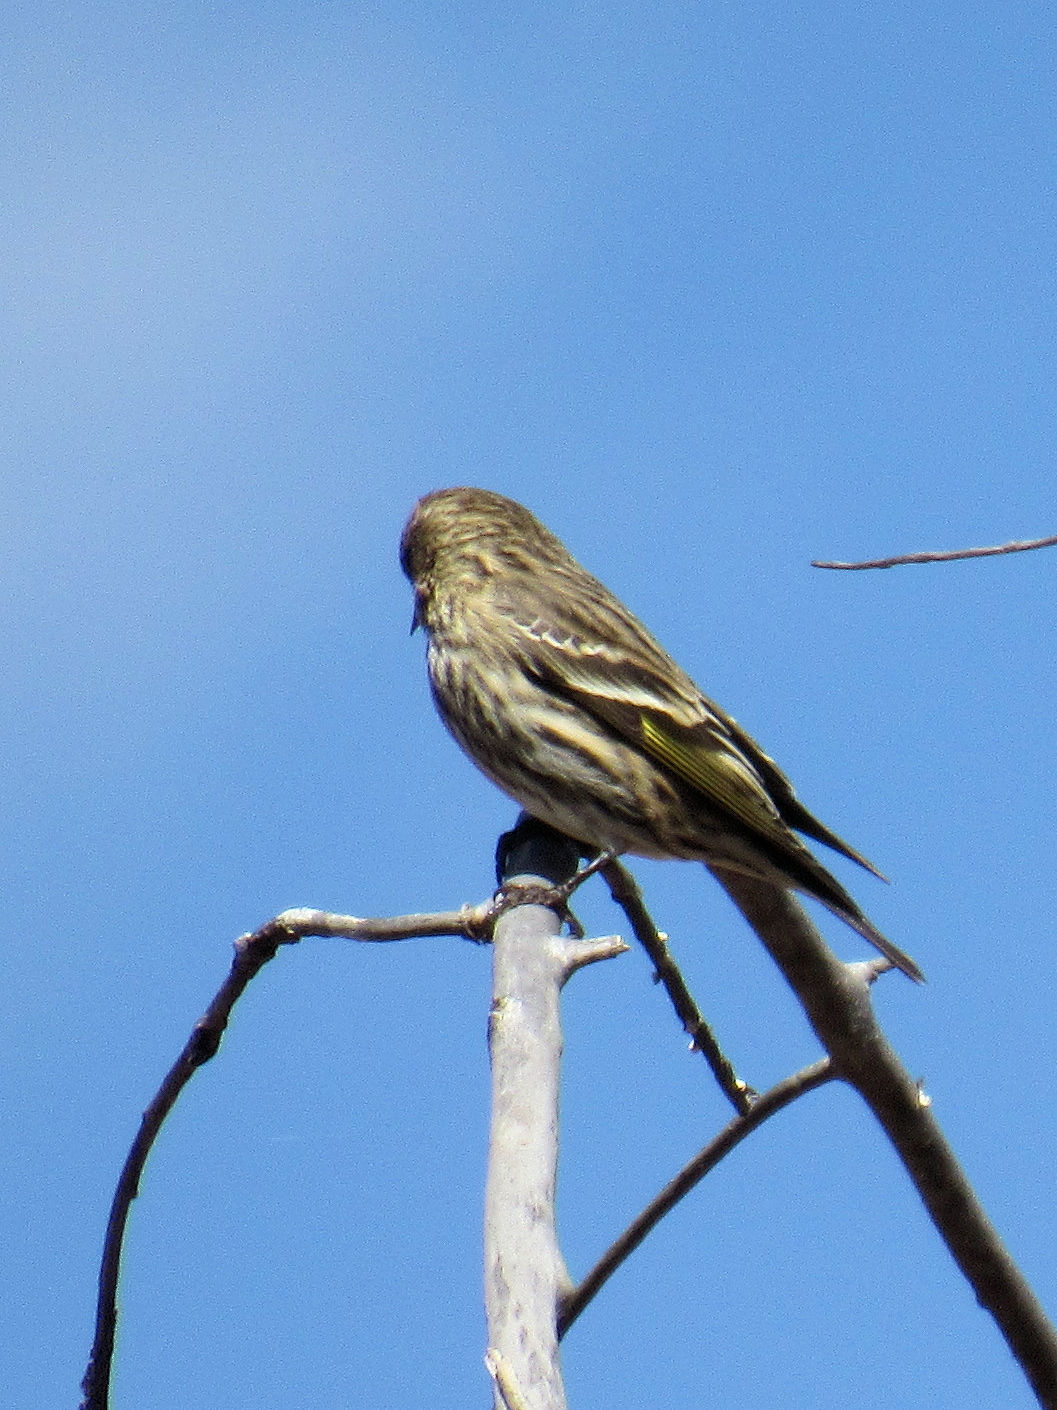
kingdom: Animalia
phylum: Chordata
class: Aves
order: Passeriformes
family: Fringillidae
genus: Spinus
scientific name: Spinus pinus
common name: Pine siskin
